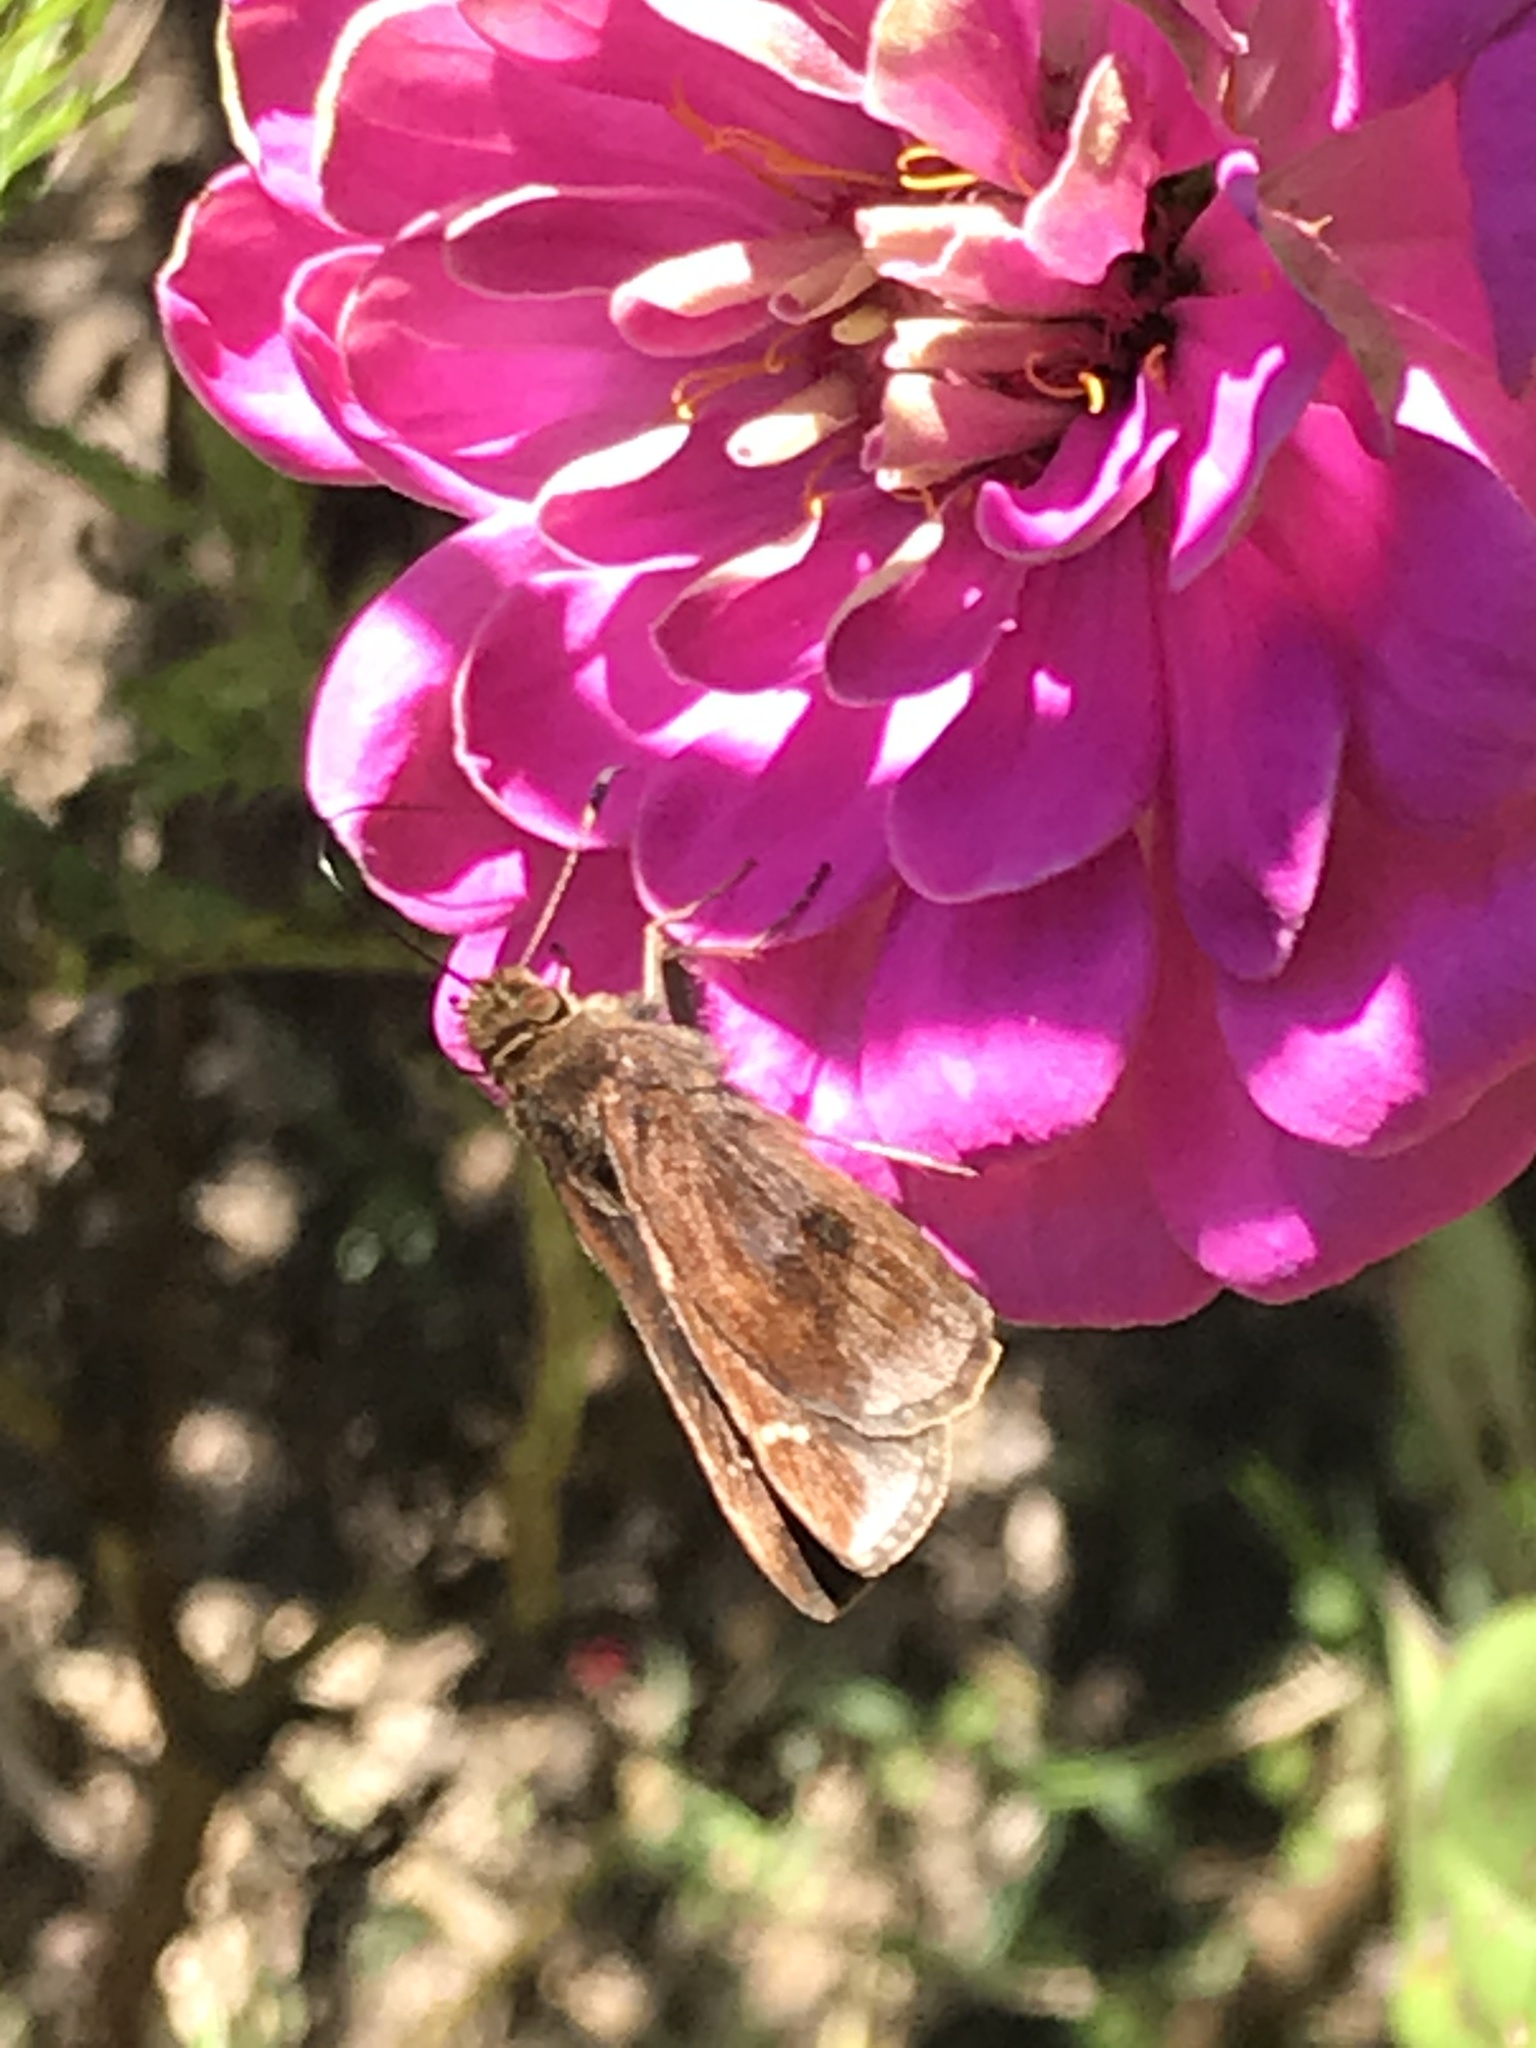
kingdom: Animalia
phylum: Arthropoda
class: Insecta
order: Lepidoptera
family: Hesperiidae
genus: Lerema
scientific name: Lerema accius
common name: Clouded skipper
